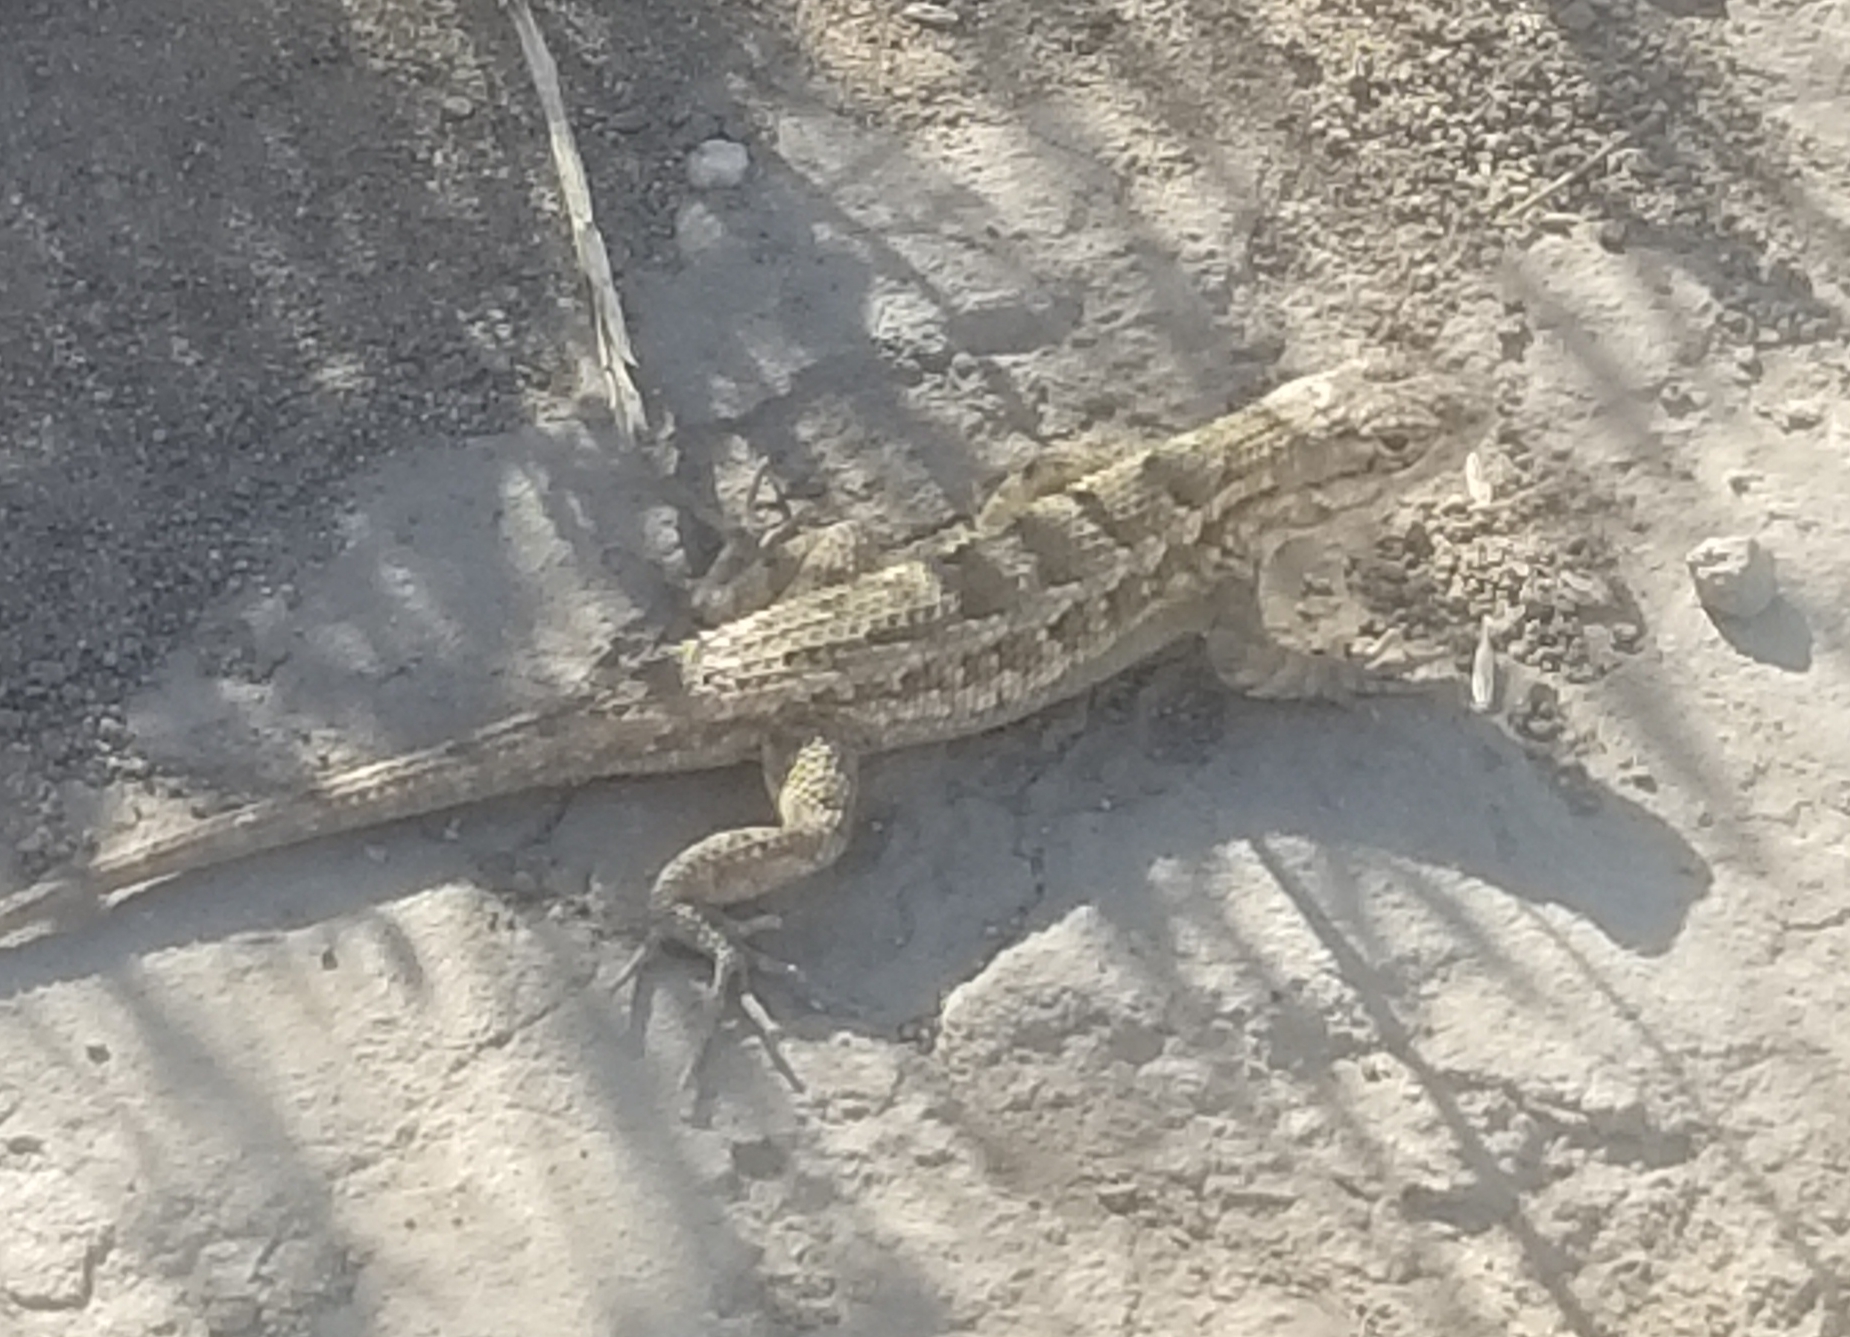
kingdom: Animalia
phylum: Chordata
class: Squamata
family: Phrynosomatidae
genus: Sceloporus
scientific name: Sceloporus occidentalis
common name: Western fence lizard
